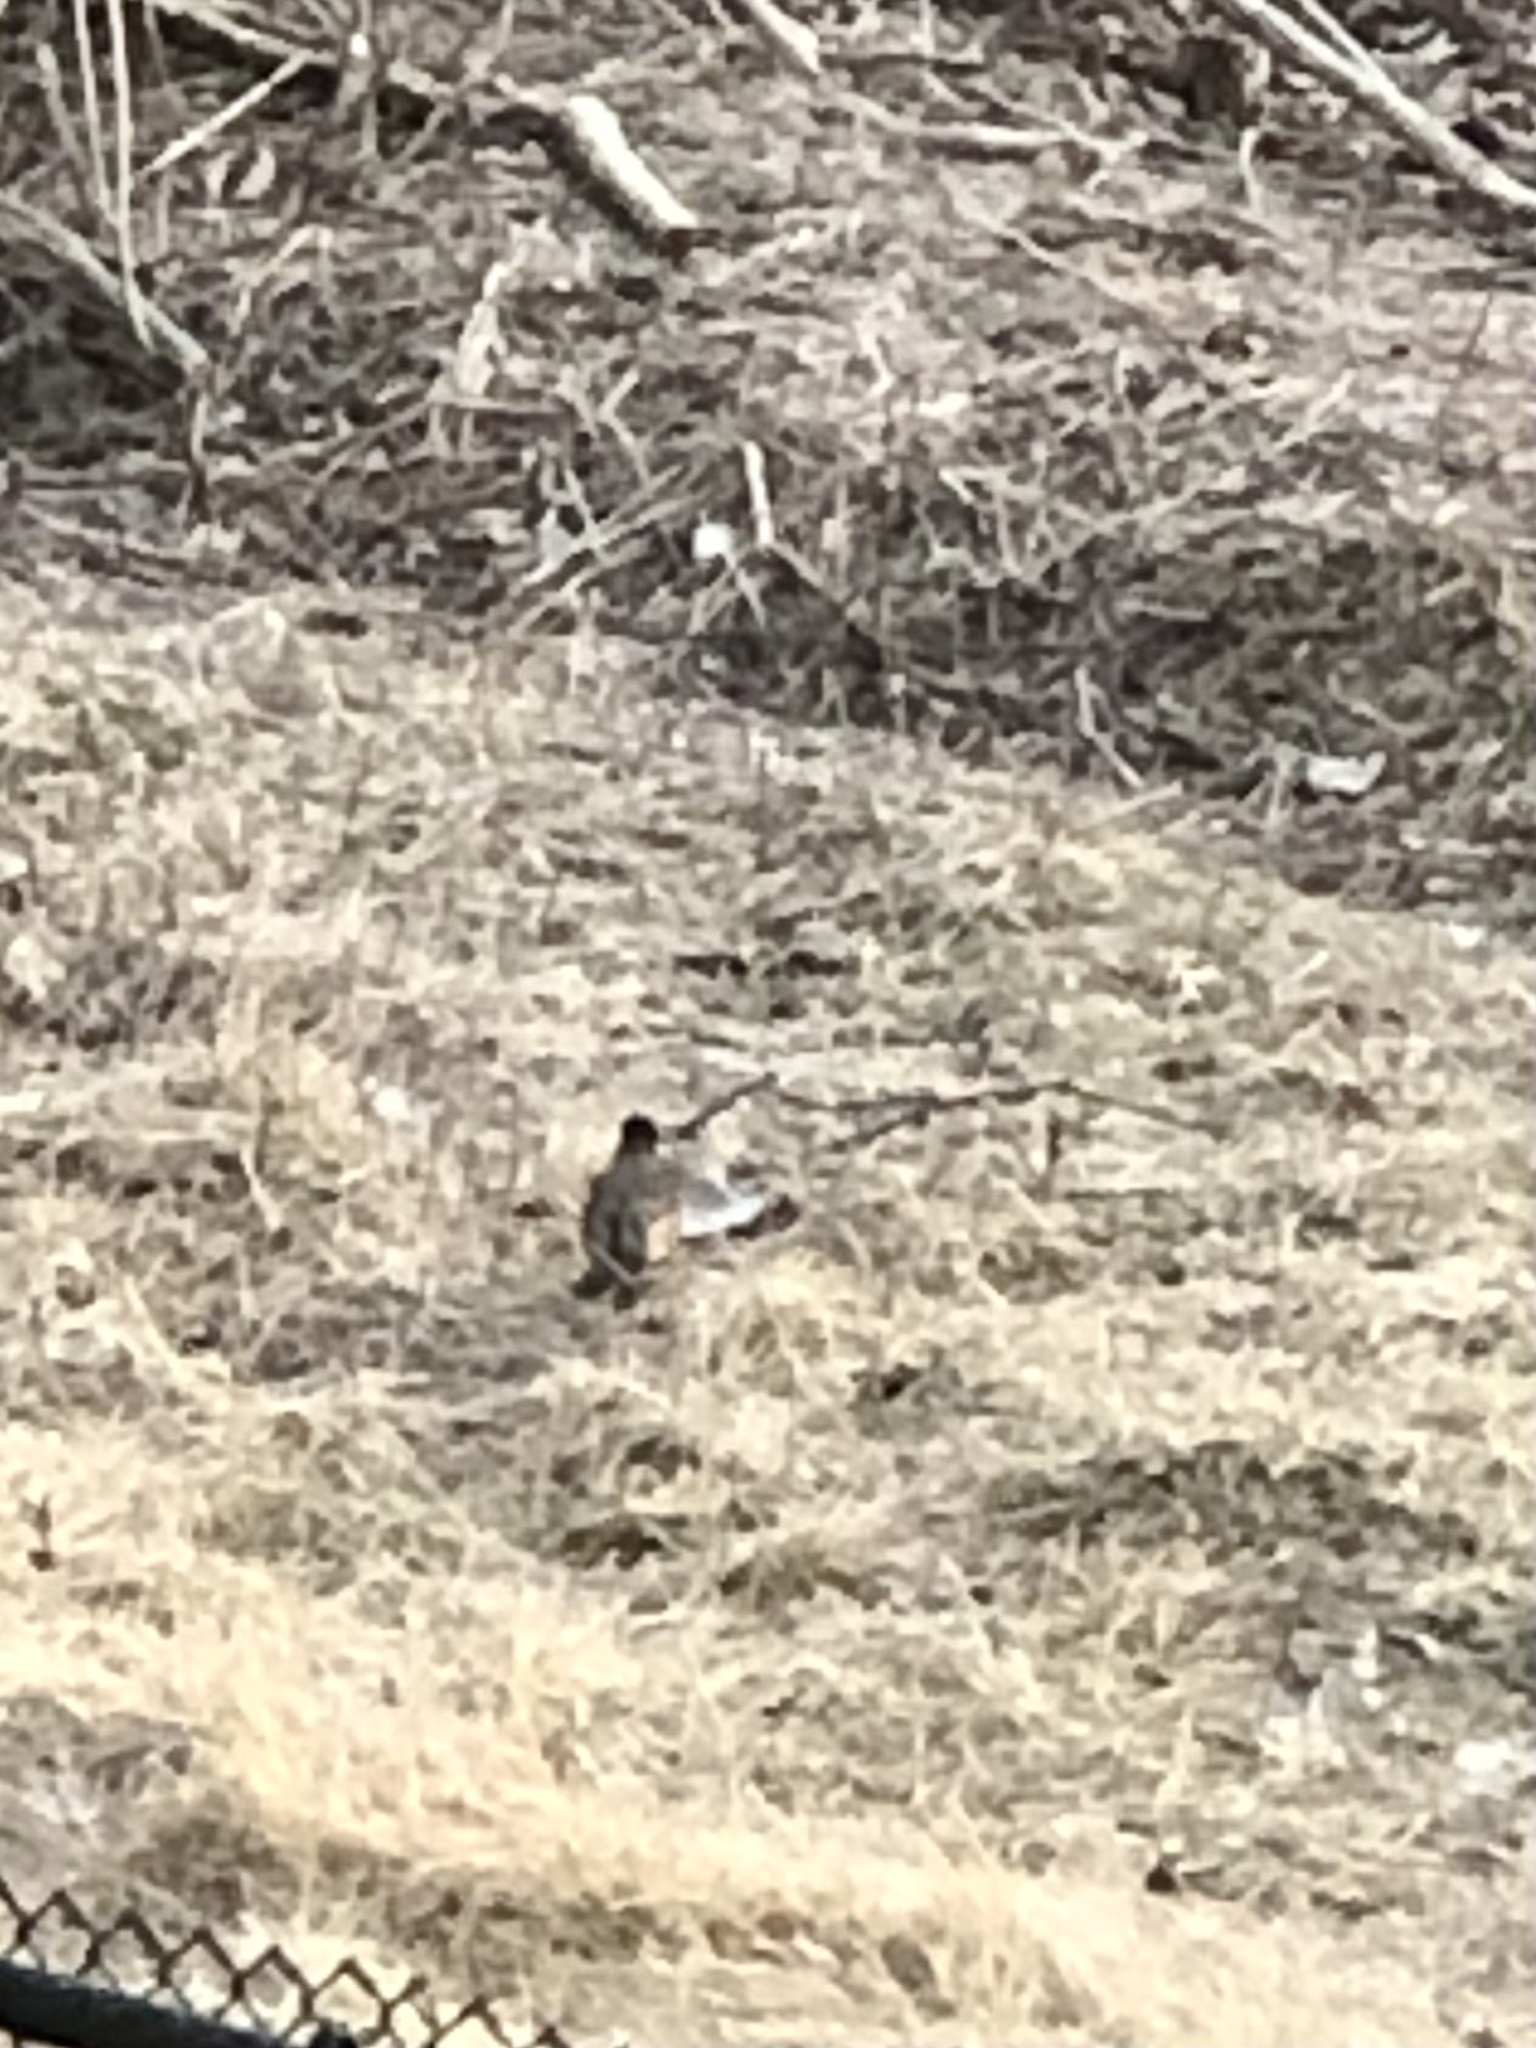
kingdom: Animalia
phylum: Chordata
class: Aves
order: Passeriformes
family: Turdidae
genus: Turdus
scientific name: Turdus migratorius
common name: American robin
